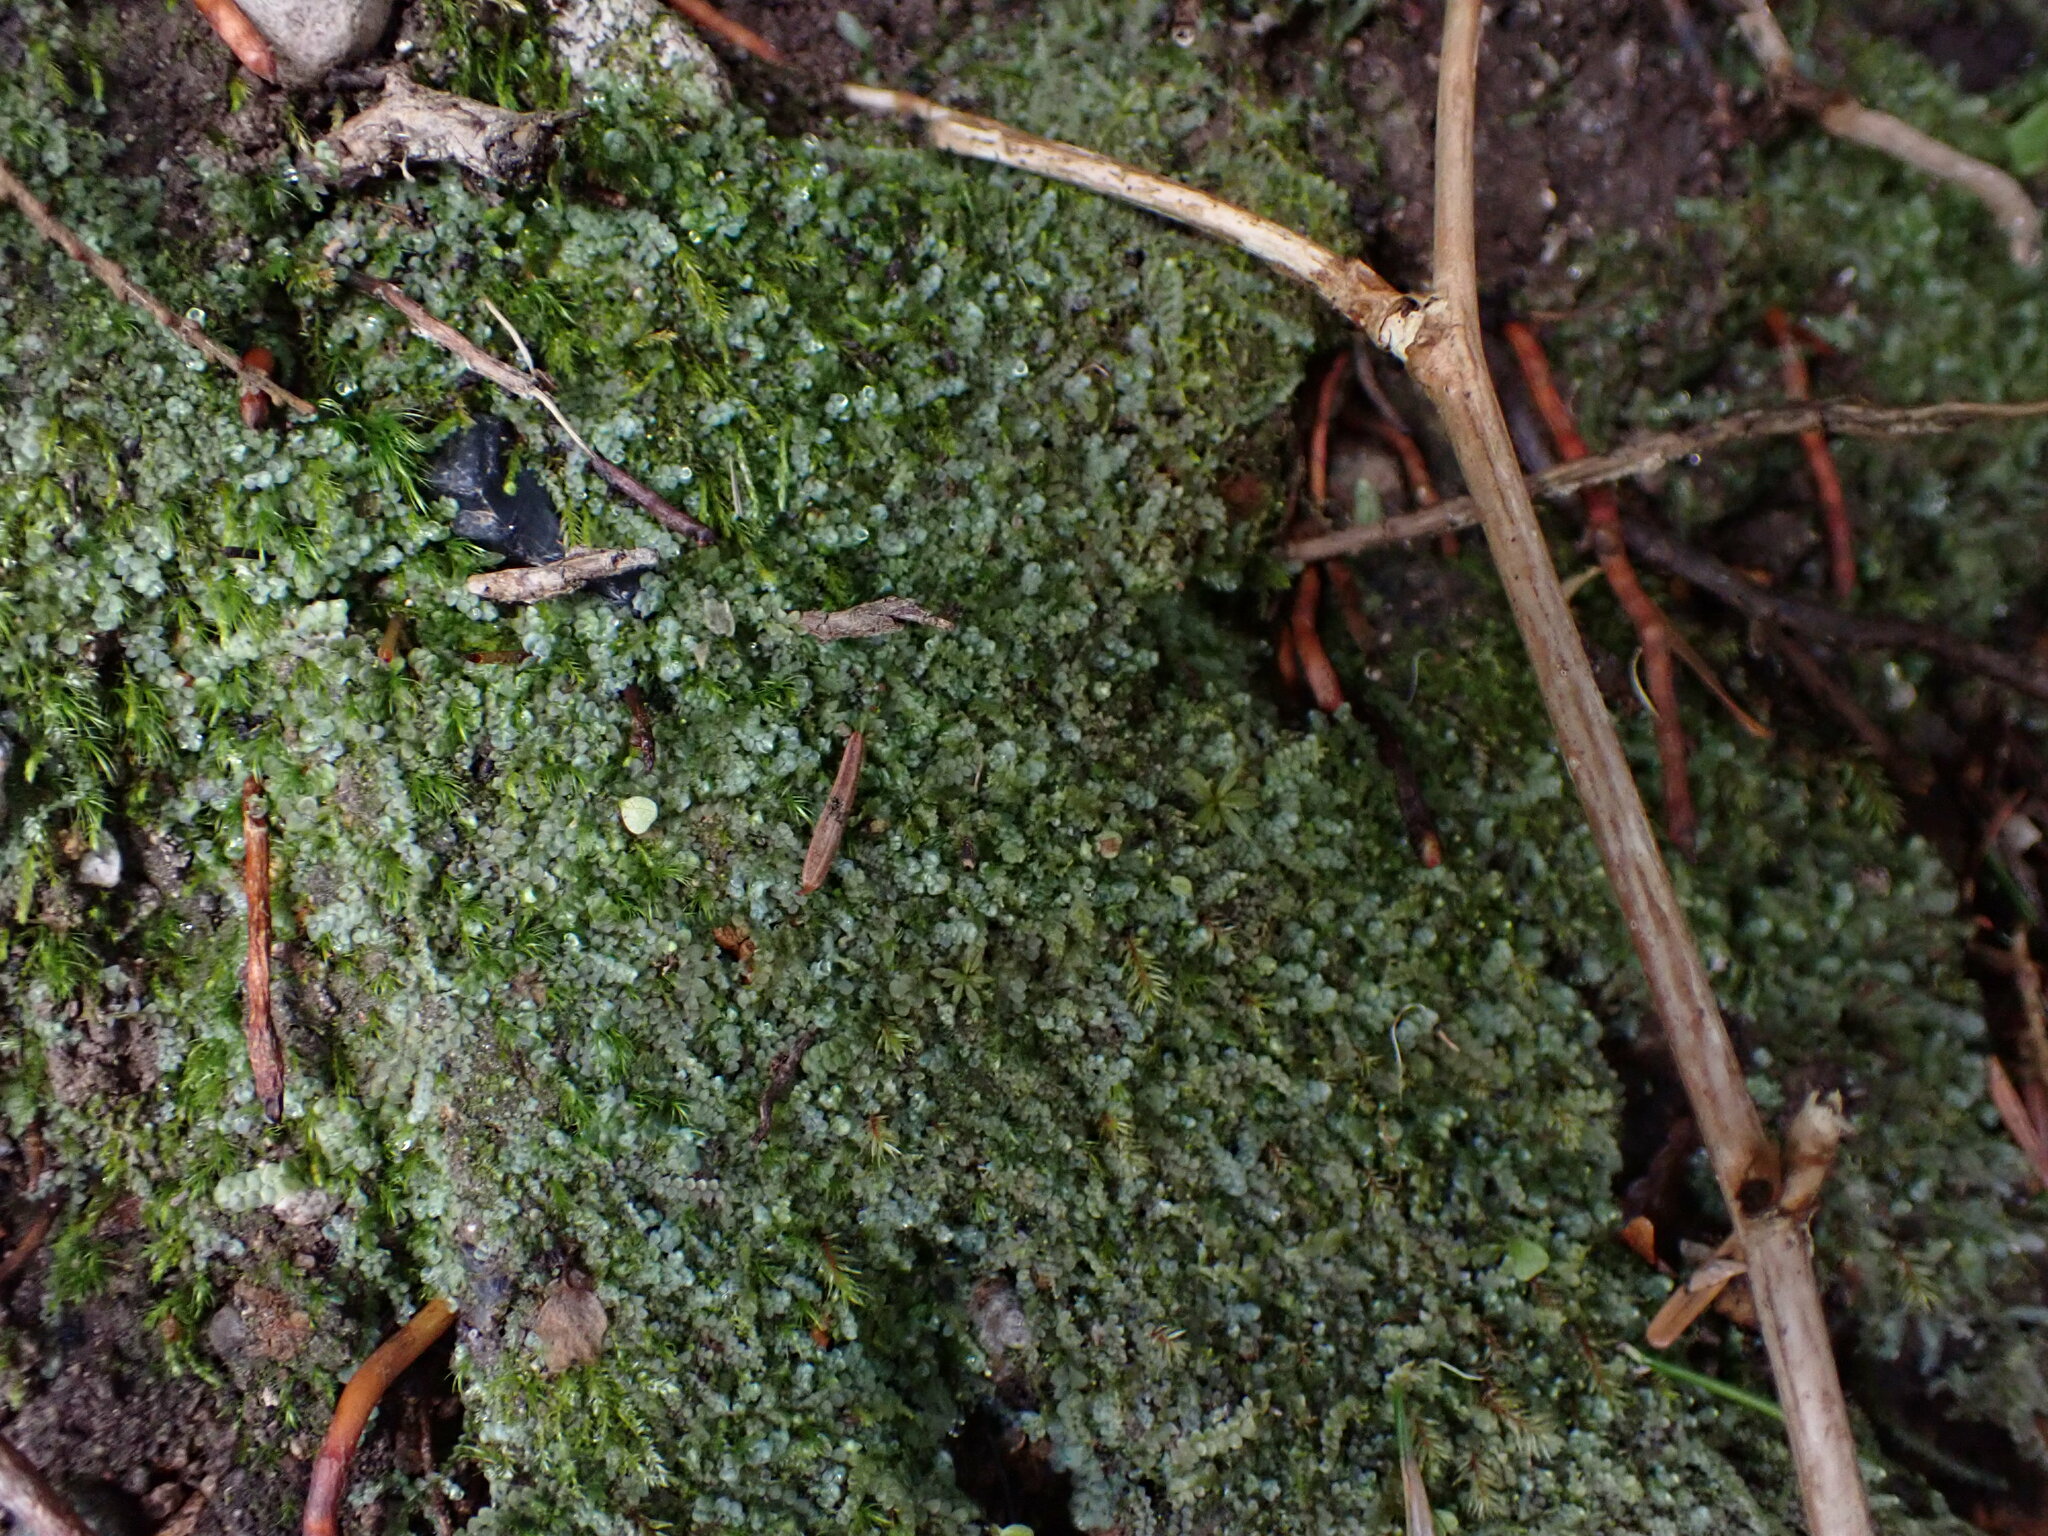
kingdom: Plantae
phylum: Marchantiophyta
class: Jungermanniopsida
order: Jungermanniales
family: Calypogeiaceae
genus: Calypogeia
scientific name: Calypogeia azurea
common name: Blue pouchwort
